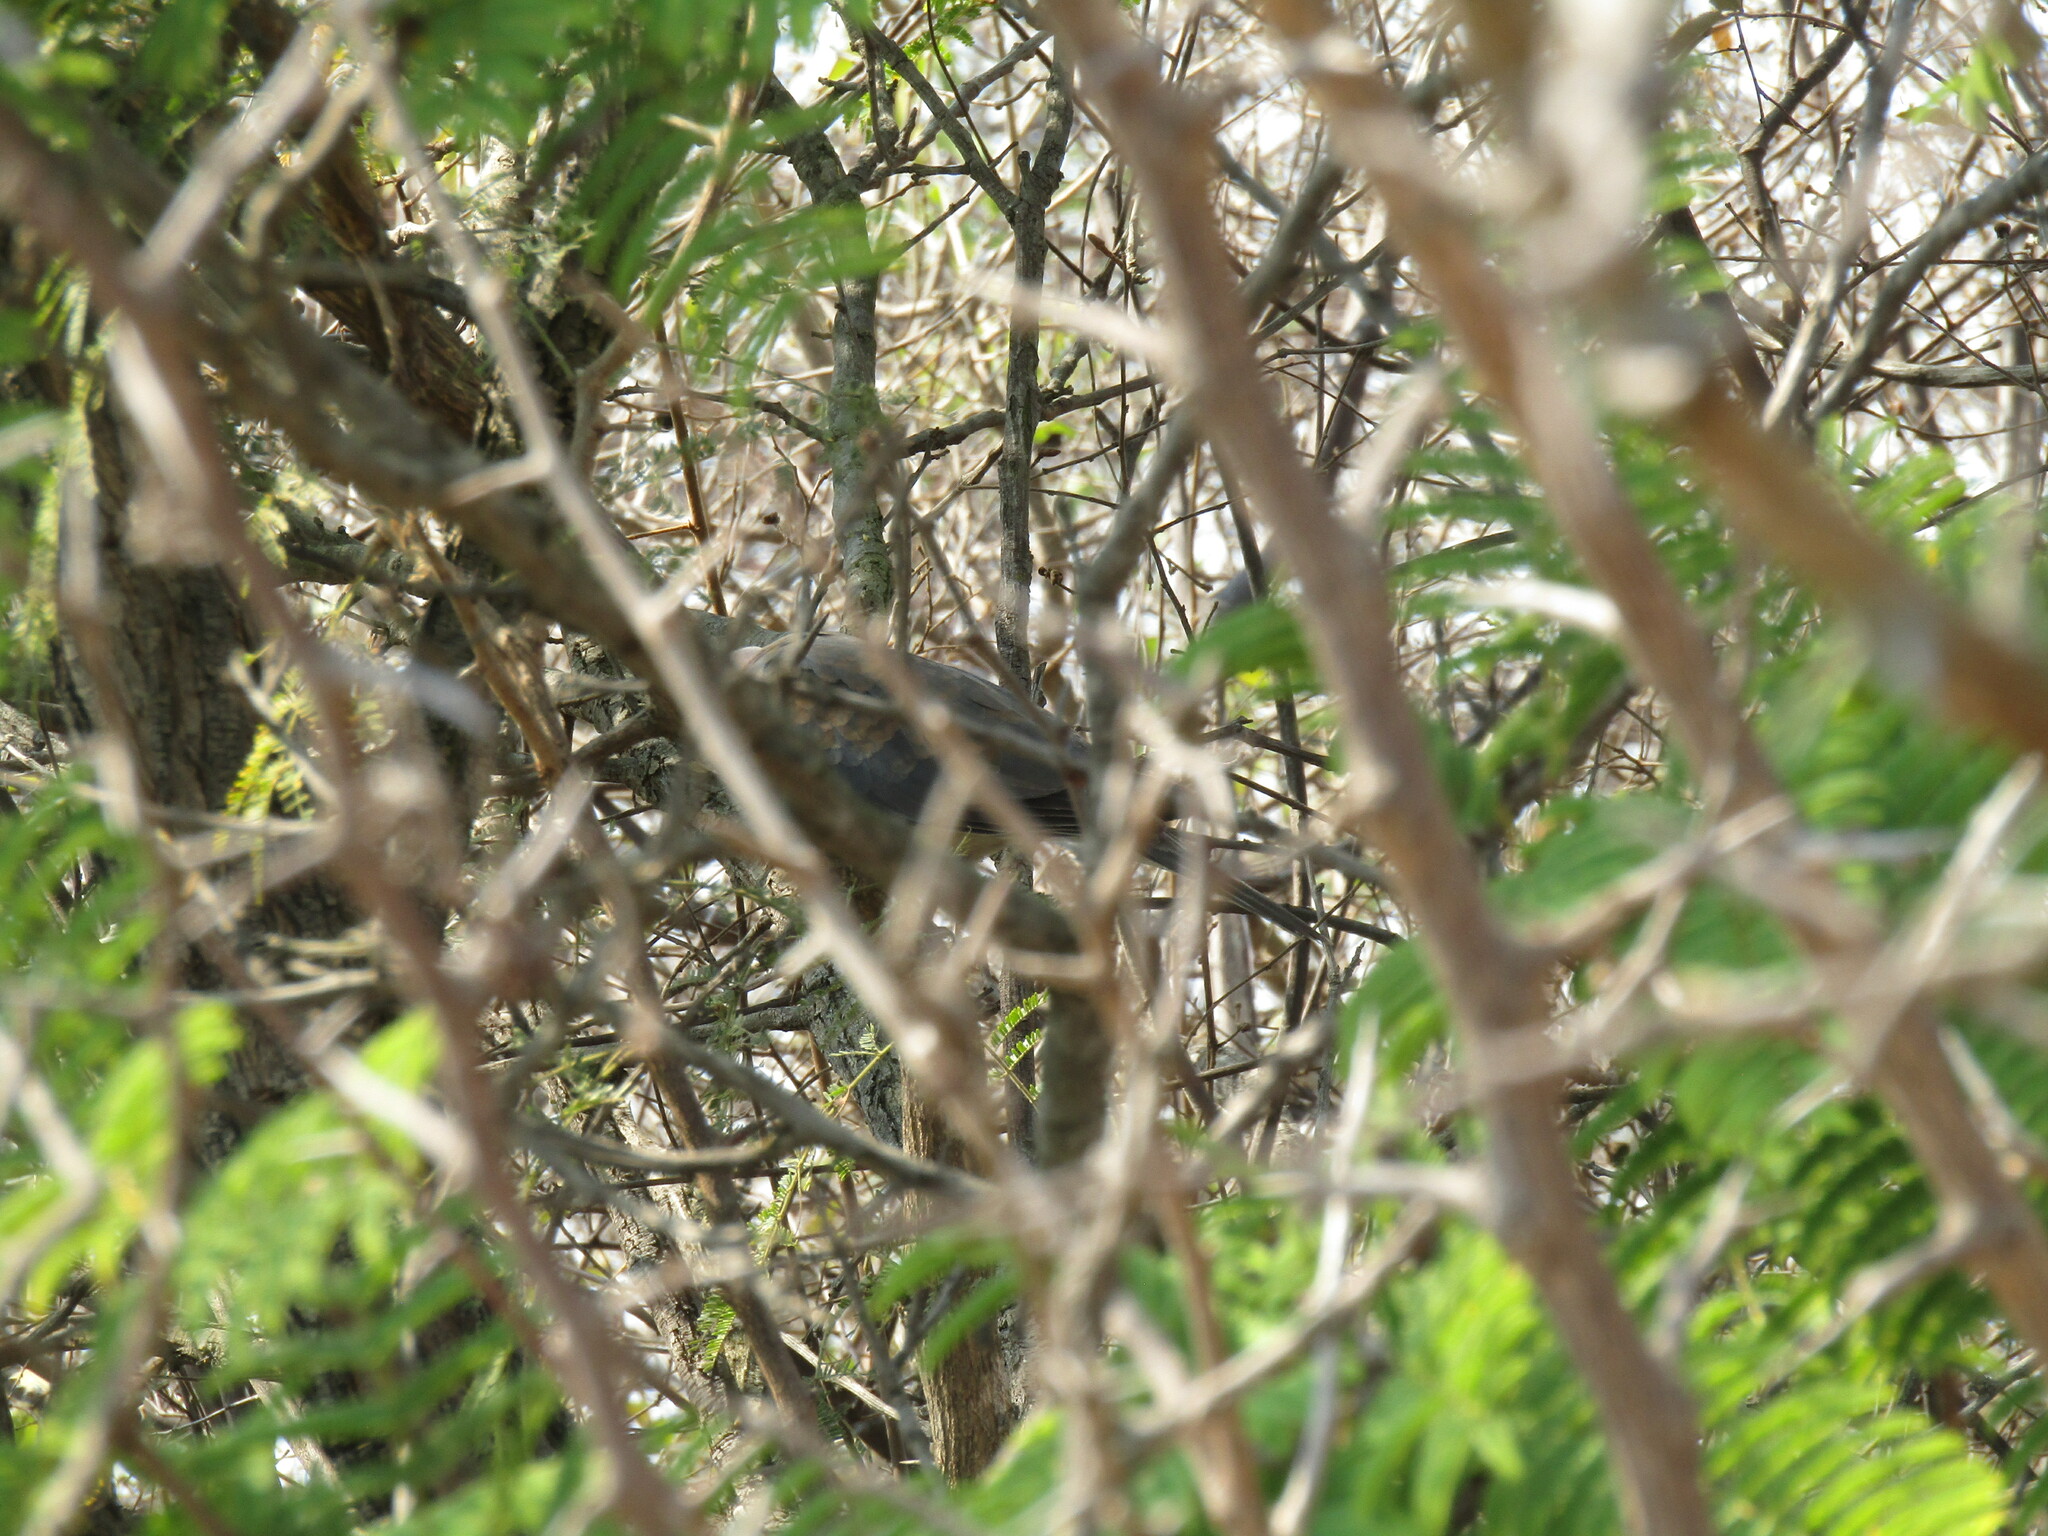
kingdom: Animalia
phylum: Chordata
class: Aves
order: Columbiformes
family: Columbidae
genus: Spilopelia
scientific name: Spilopelia senegalensis
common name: Laughing dove
